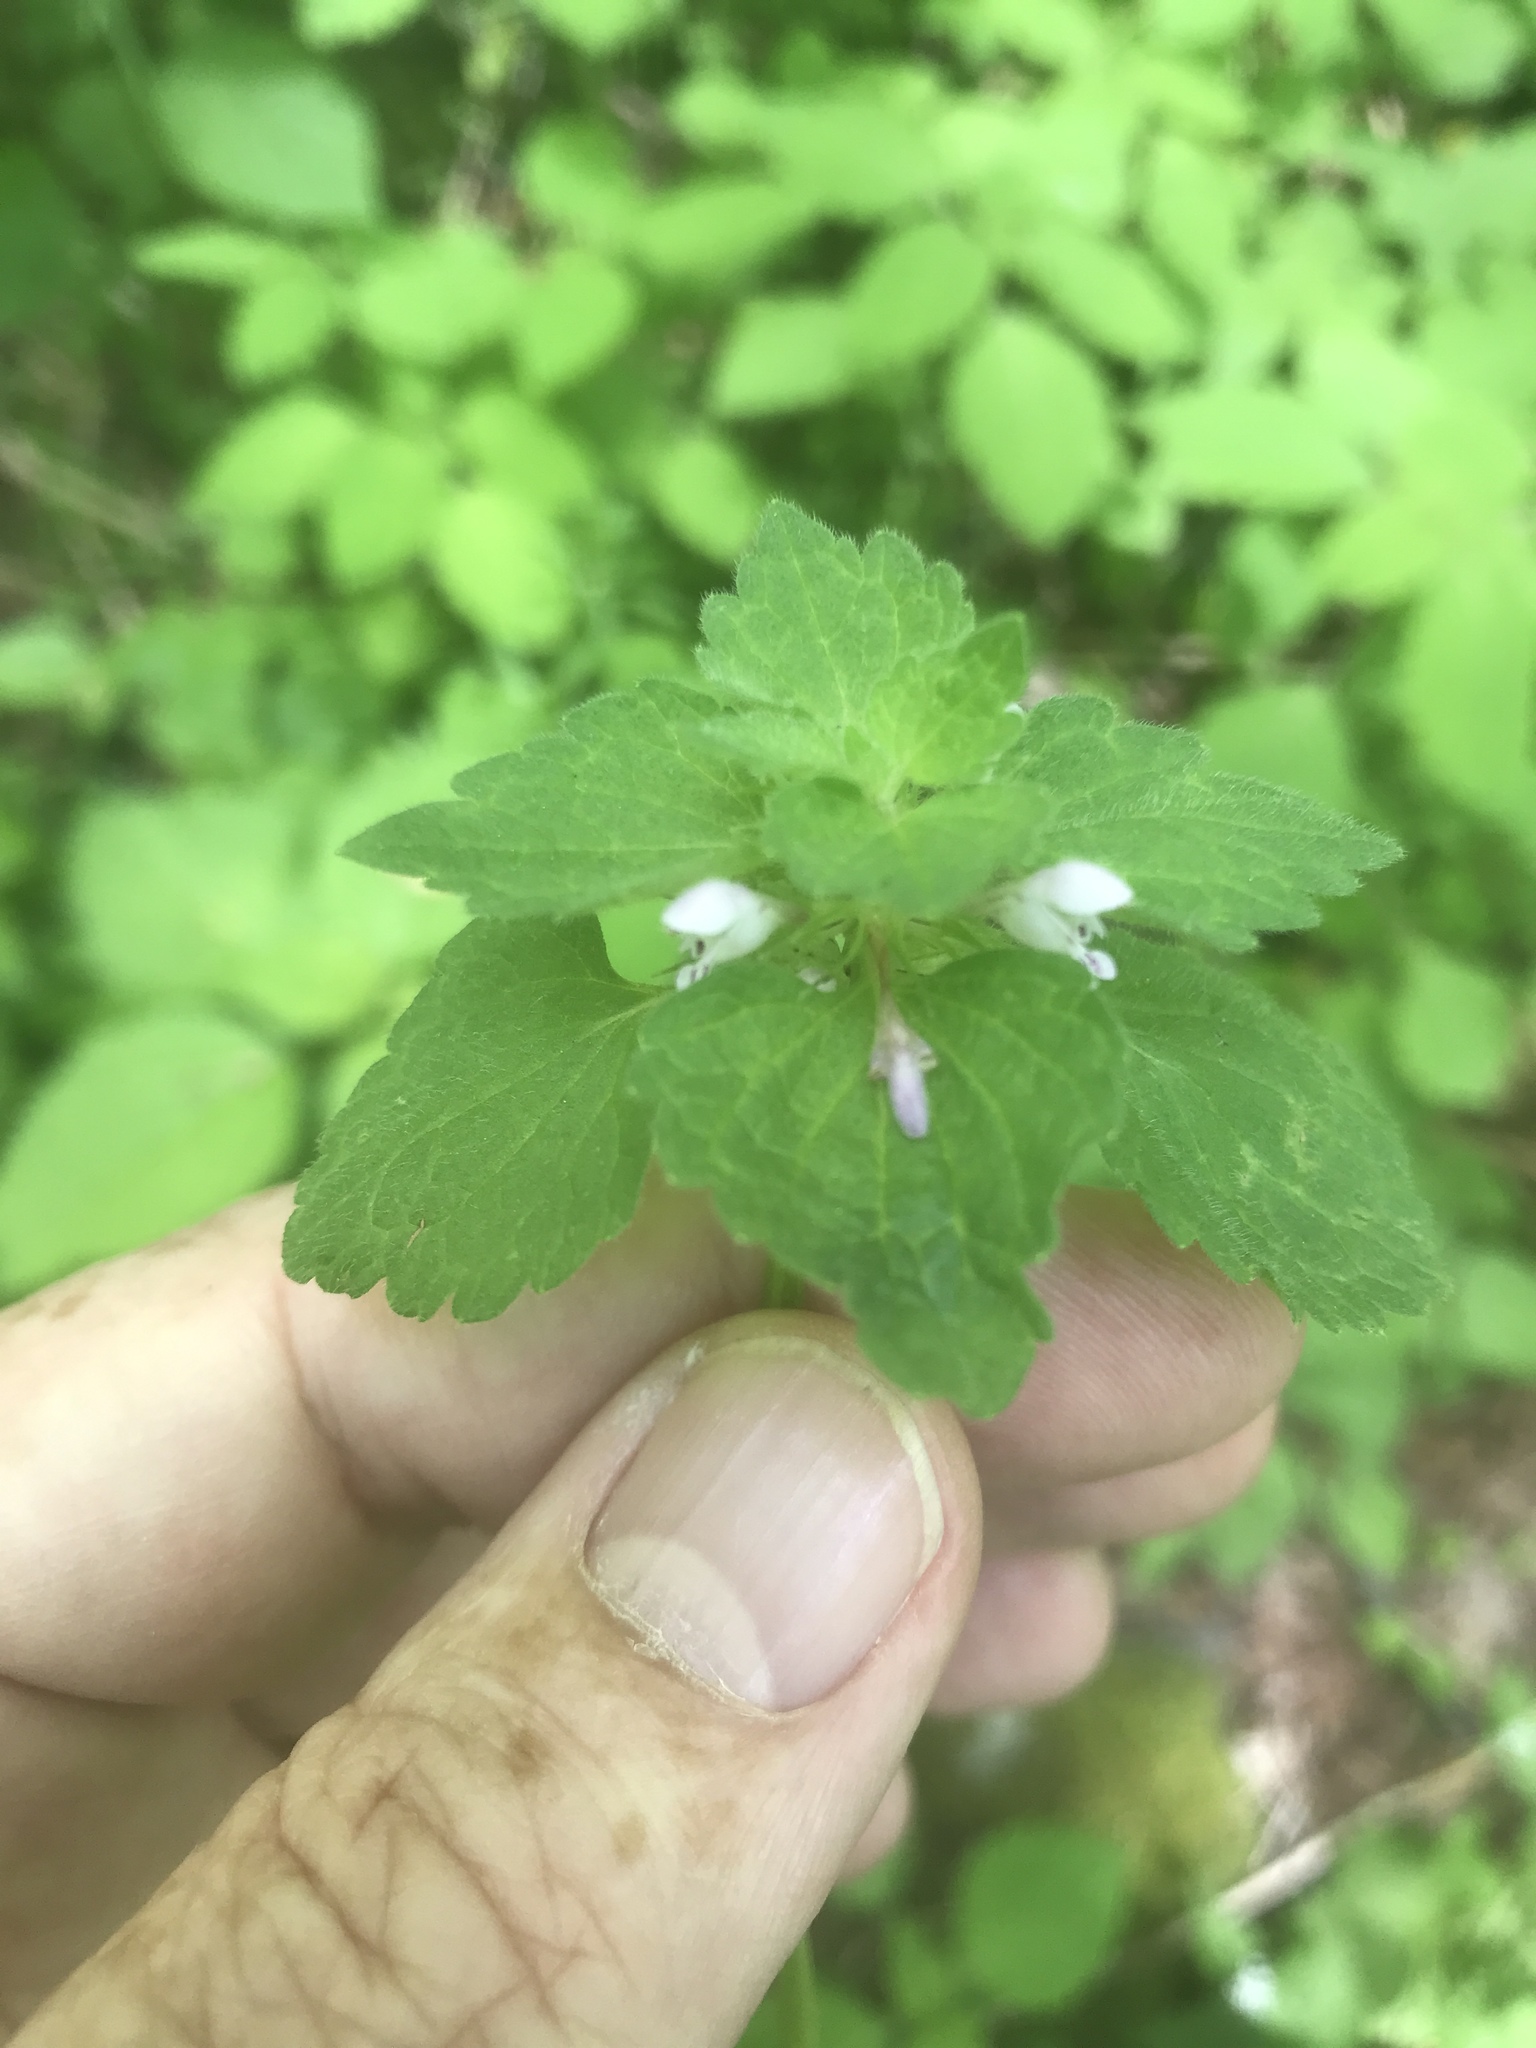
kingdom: Plantae
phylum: Tracheophyta
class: Magnoliopsida
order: Lamiales
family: Lamiaceae
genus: Lamium
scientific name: Lamium purpureum
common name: Red dead-nettle
